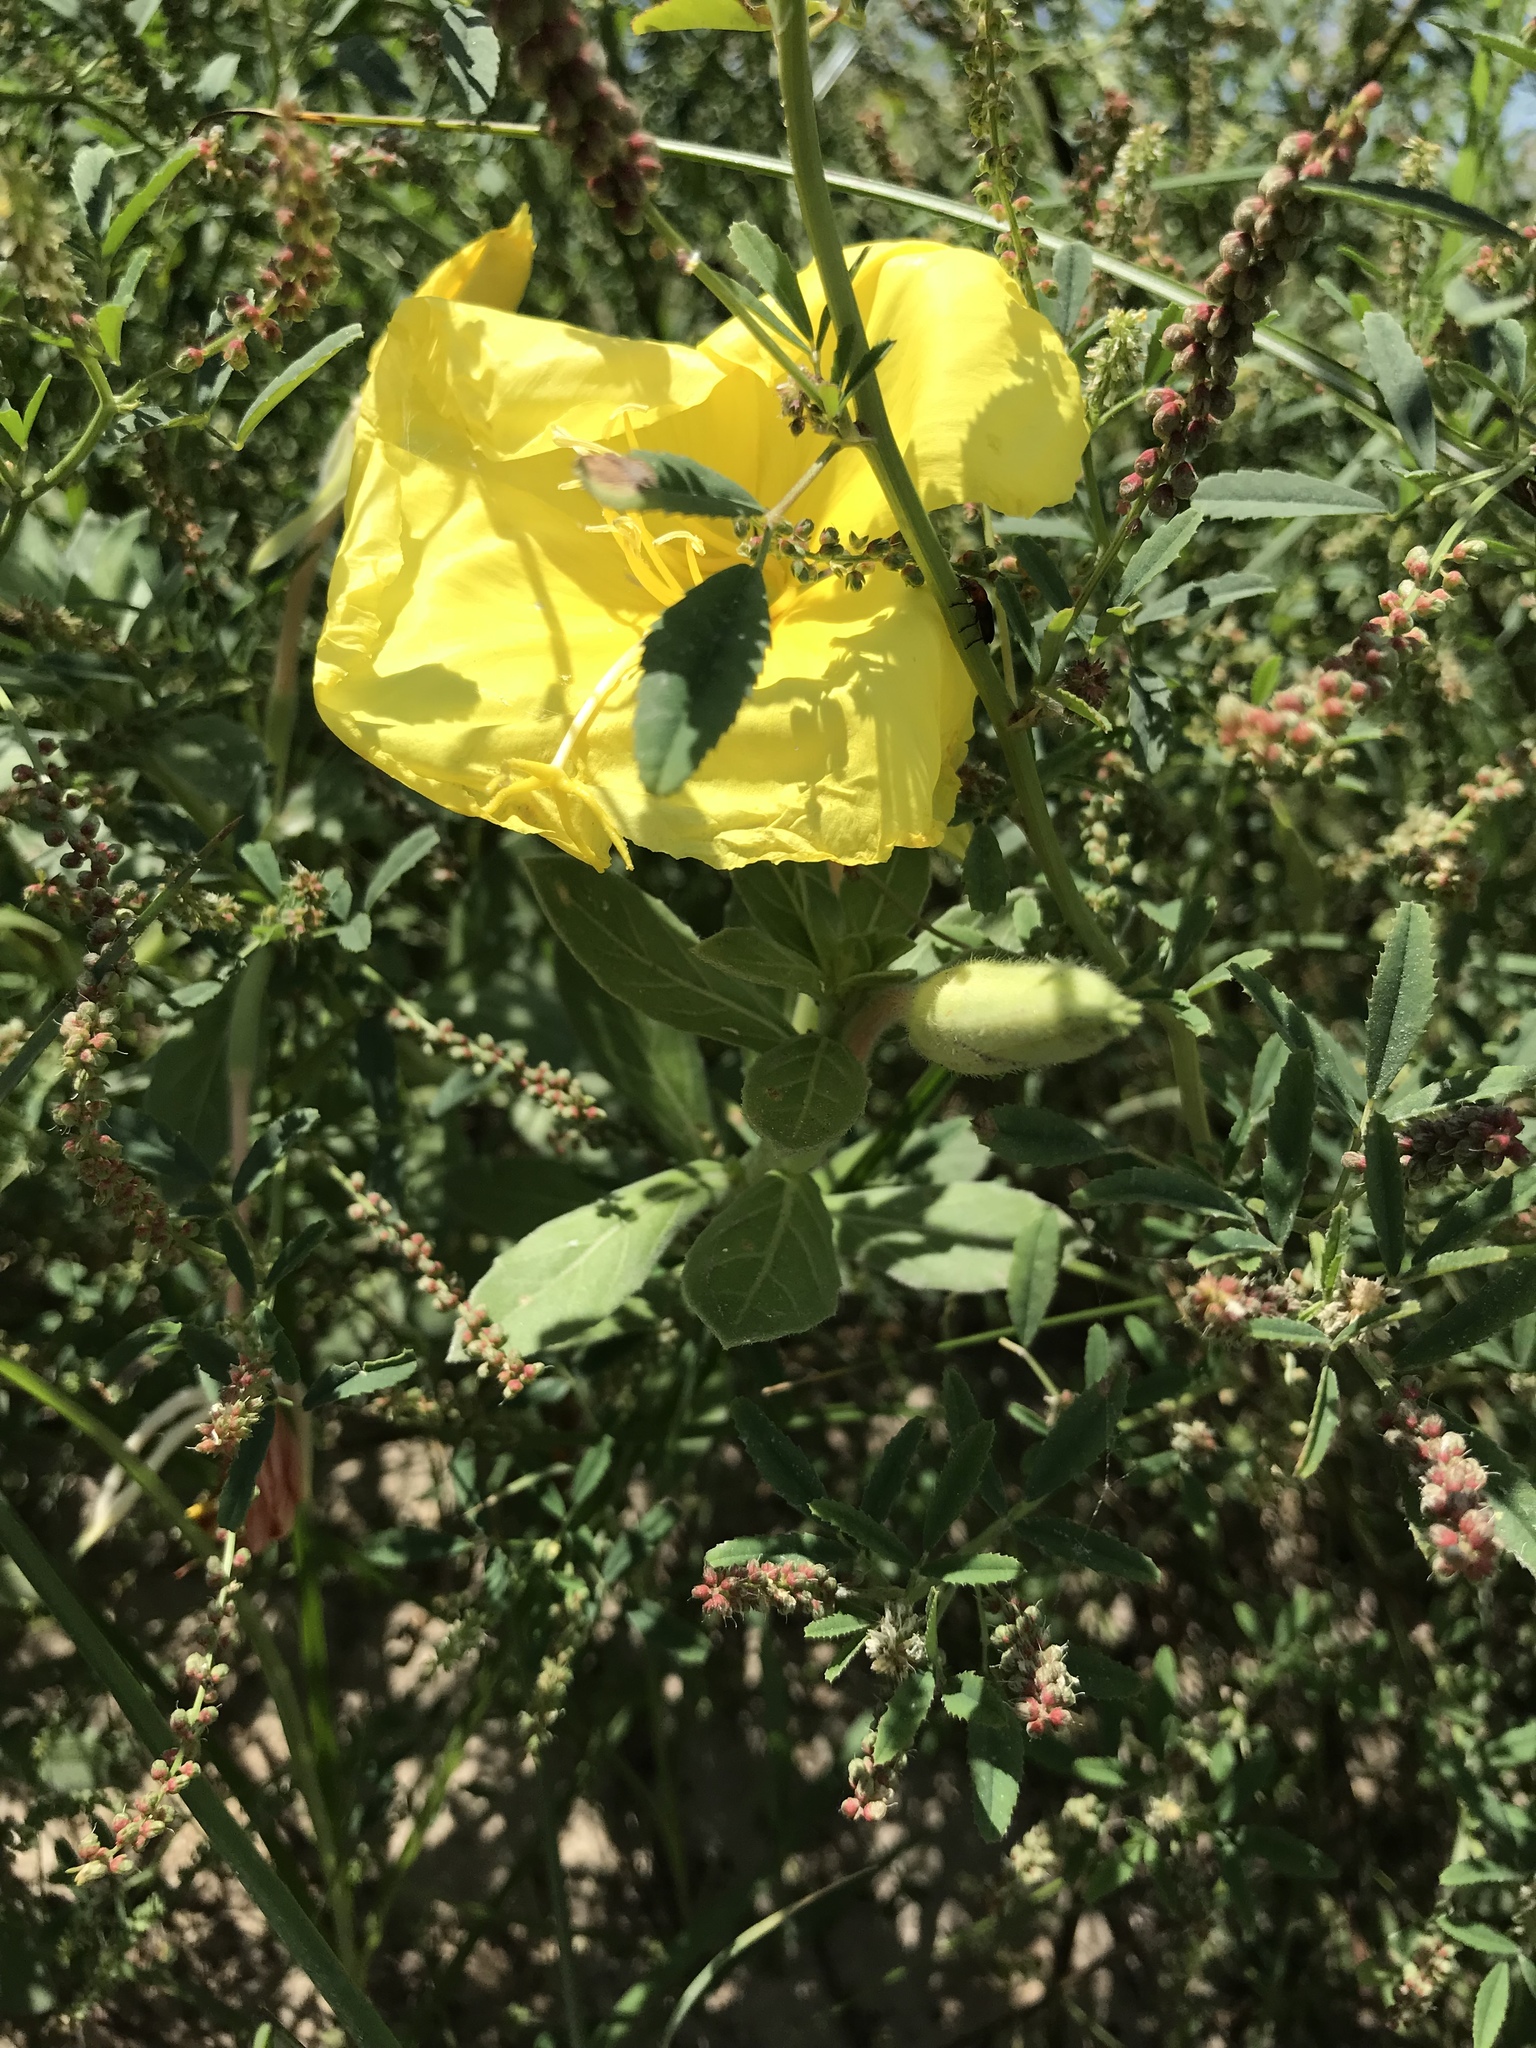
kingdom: Plantae
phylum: Tracheophyta
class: Magnoliopsida
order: Myrtales
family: Onagraceae
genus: Oenothera
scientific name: Oenothera drummondii
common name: Beach evening-primrose
